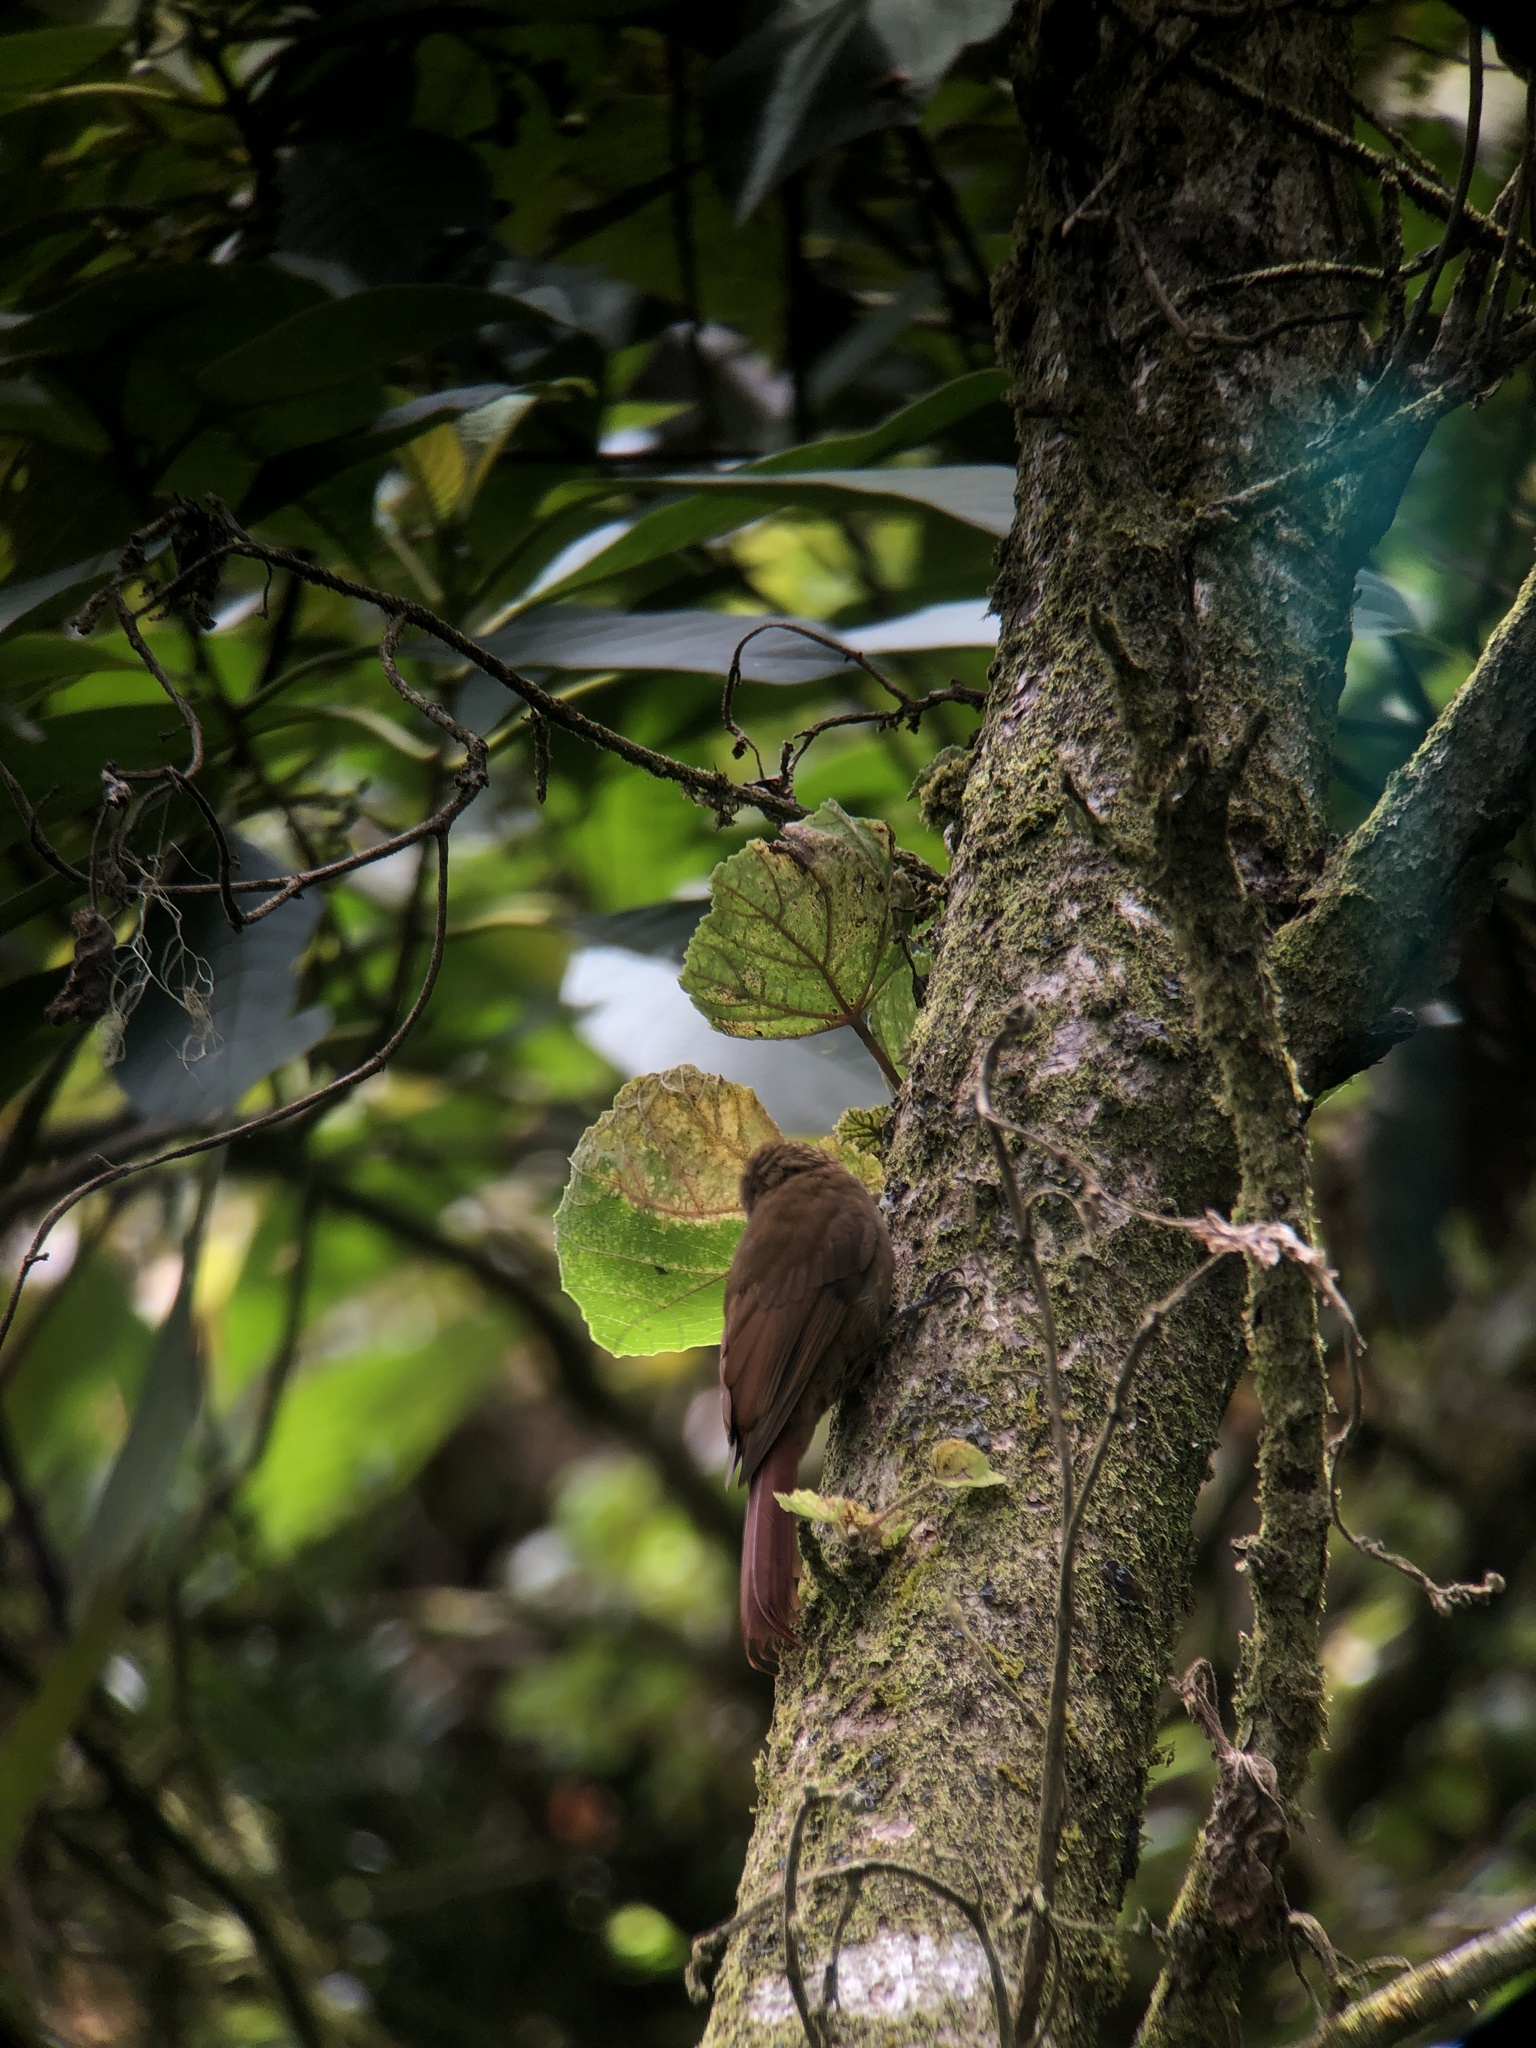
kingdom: Animalia
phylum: Chordata
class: Aves
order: Passeriformes
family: Furnariidae
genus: Glyphorynchus
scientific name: Glyphorynchus spirurus
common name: Wedge-billed woodcreeper
